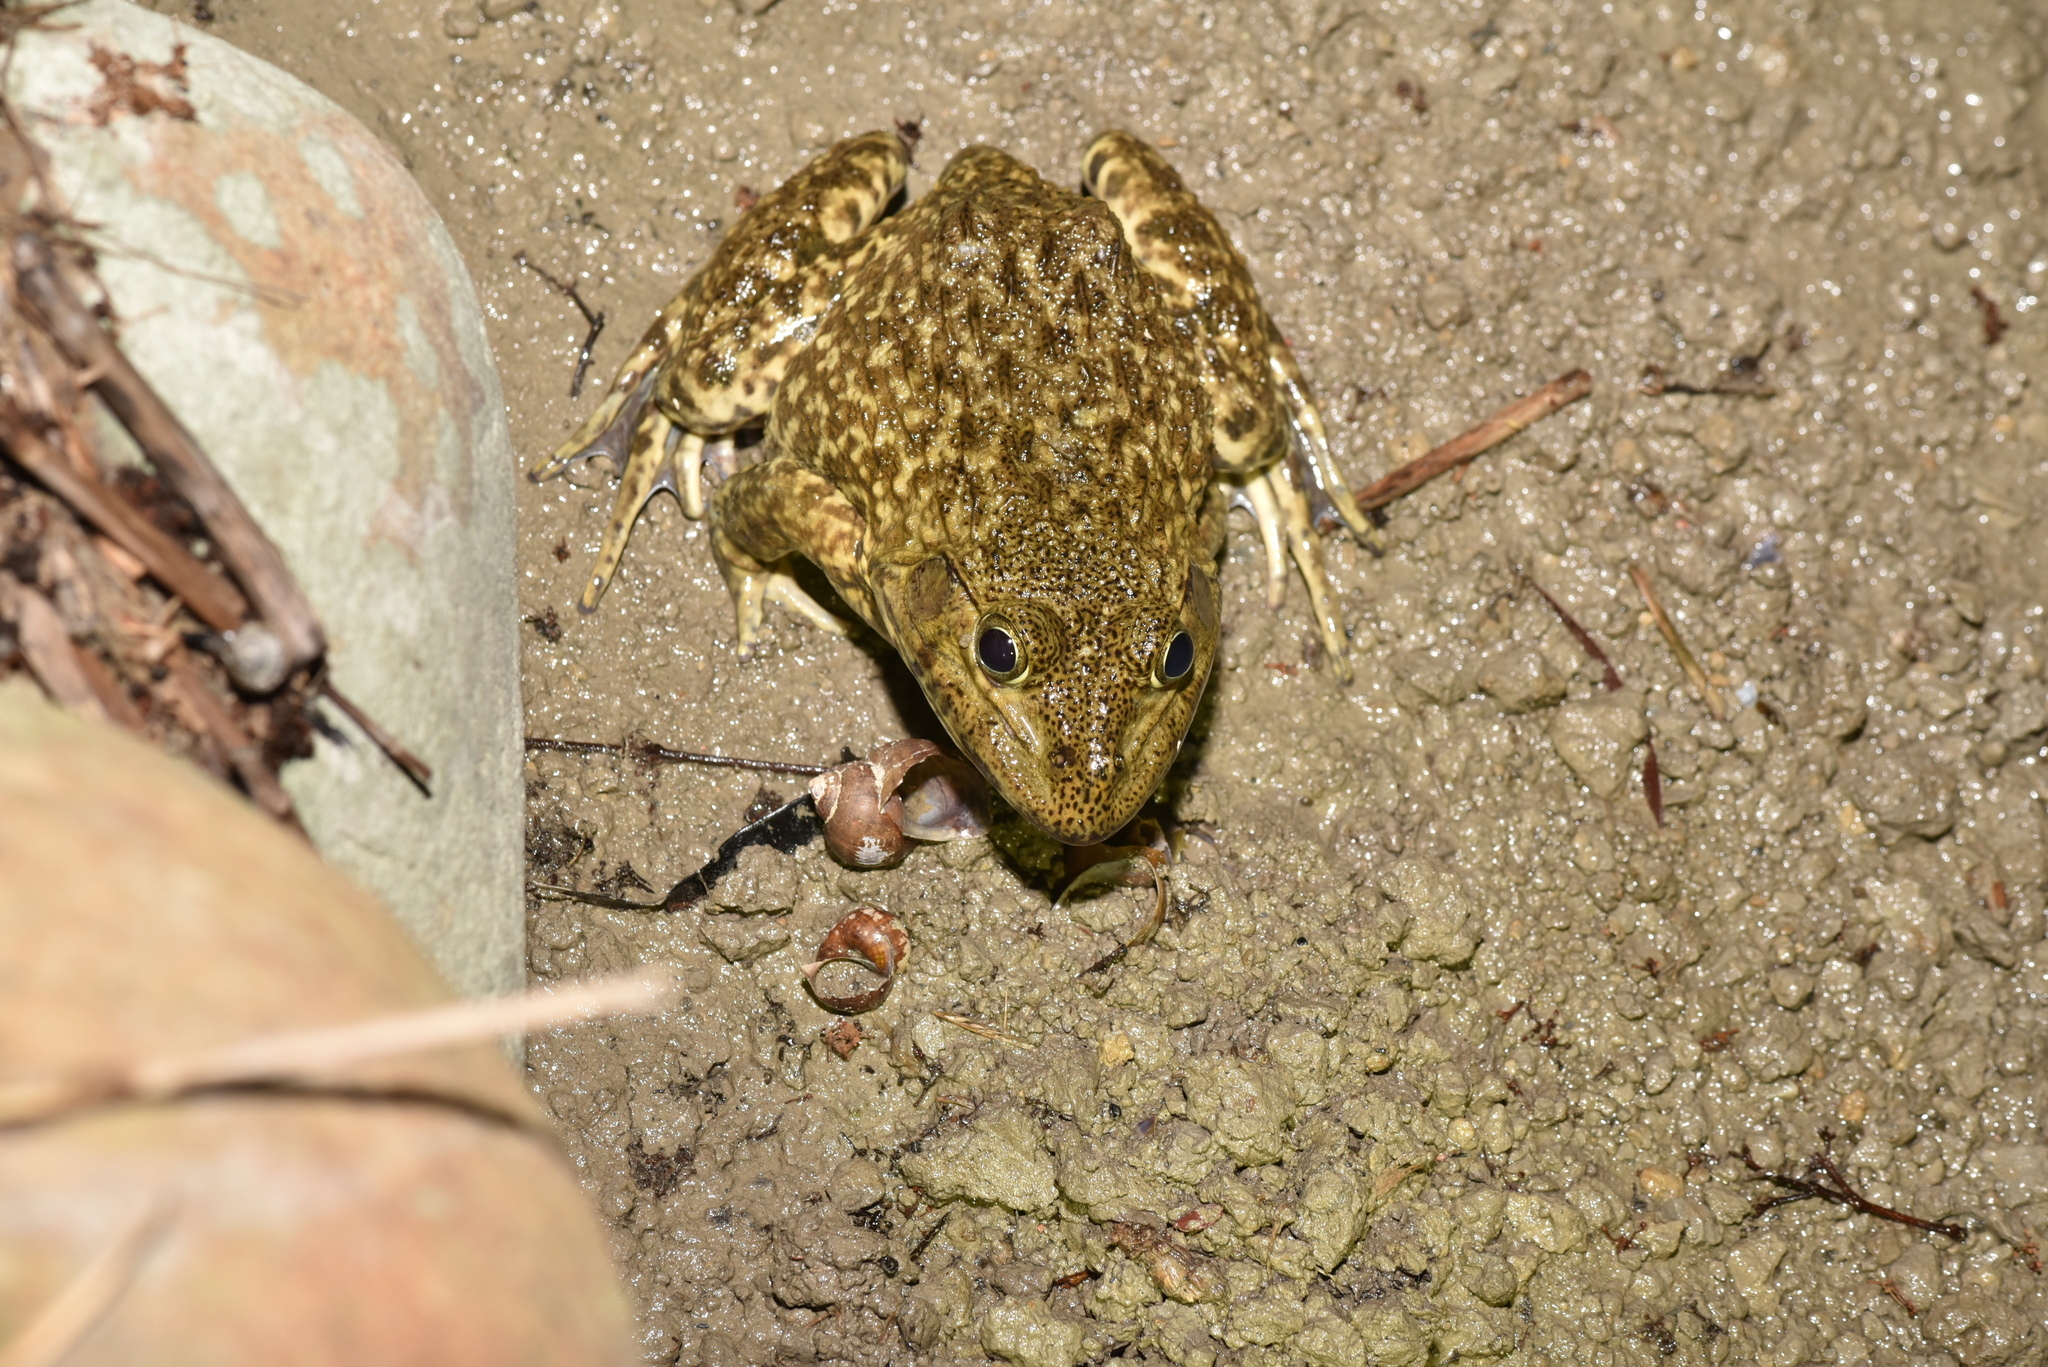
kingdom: Animalia
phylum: Chordata
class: Amphibia
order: Anura
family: Dicroglossidae
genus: Hoplobatrachus
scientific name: Hoplobatrachus rugulosus
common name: Chinese edible frog
